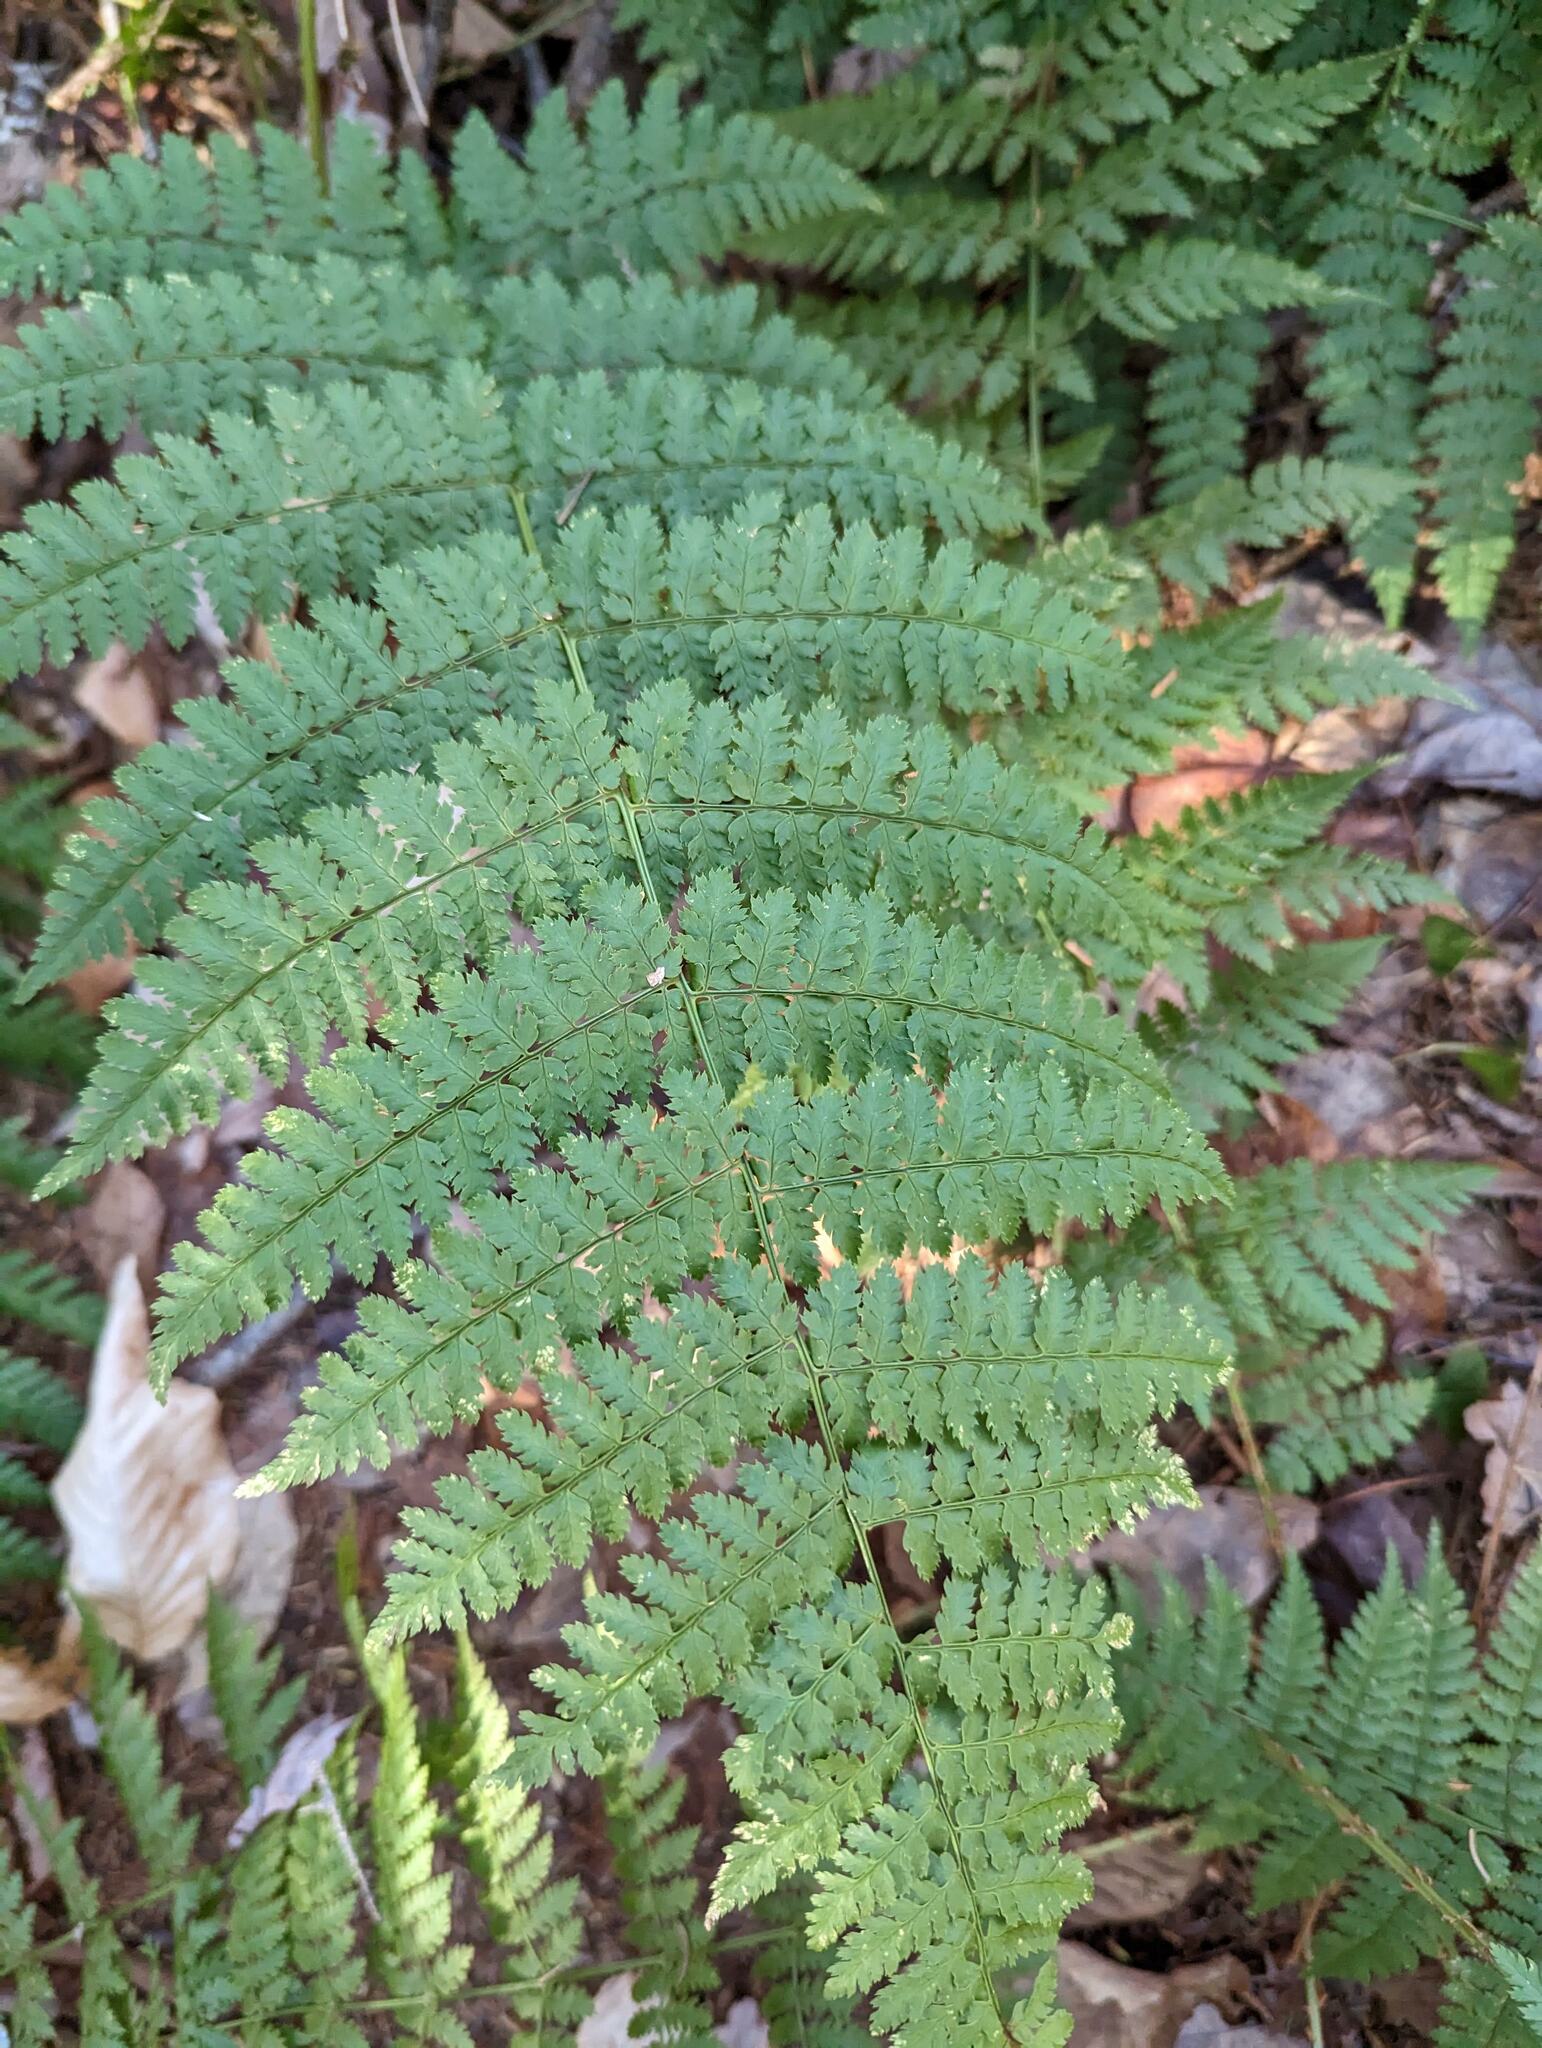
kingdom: Plantae
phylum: Tracheophyta
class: Polypodiopsida
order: Polypodiales
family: Dryopteridaceae
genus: Dryopteris
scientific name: Dryopteris intermedia
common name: Evergreen wood fern
